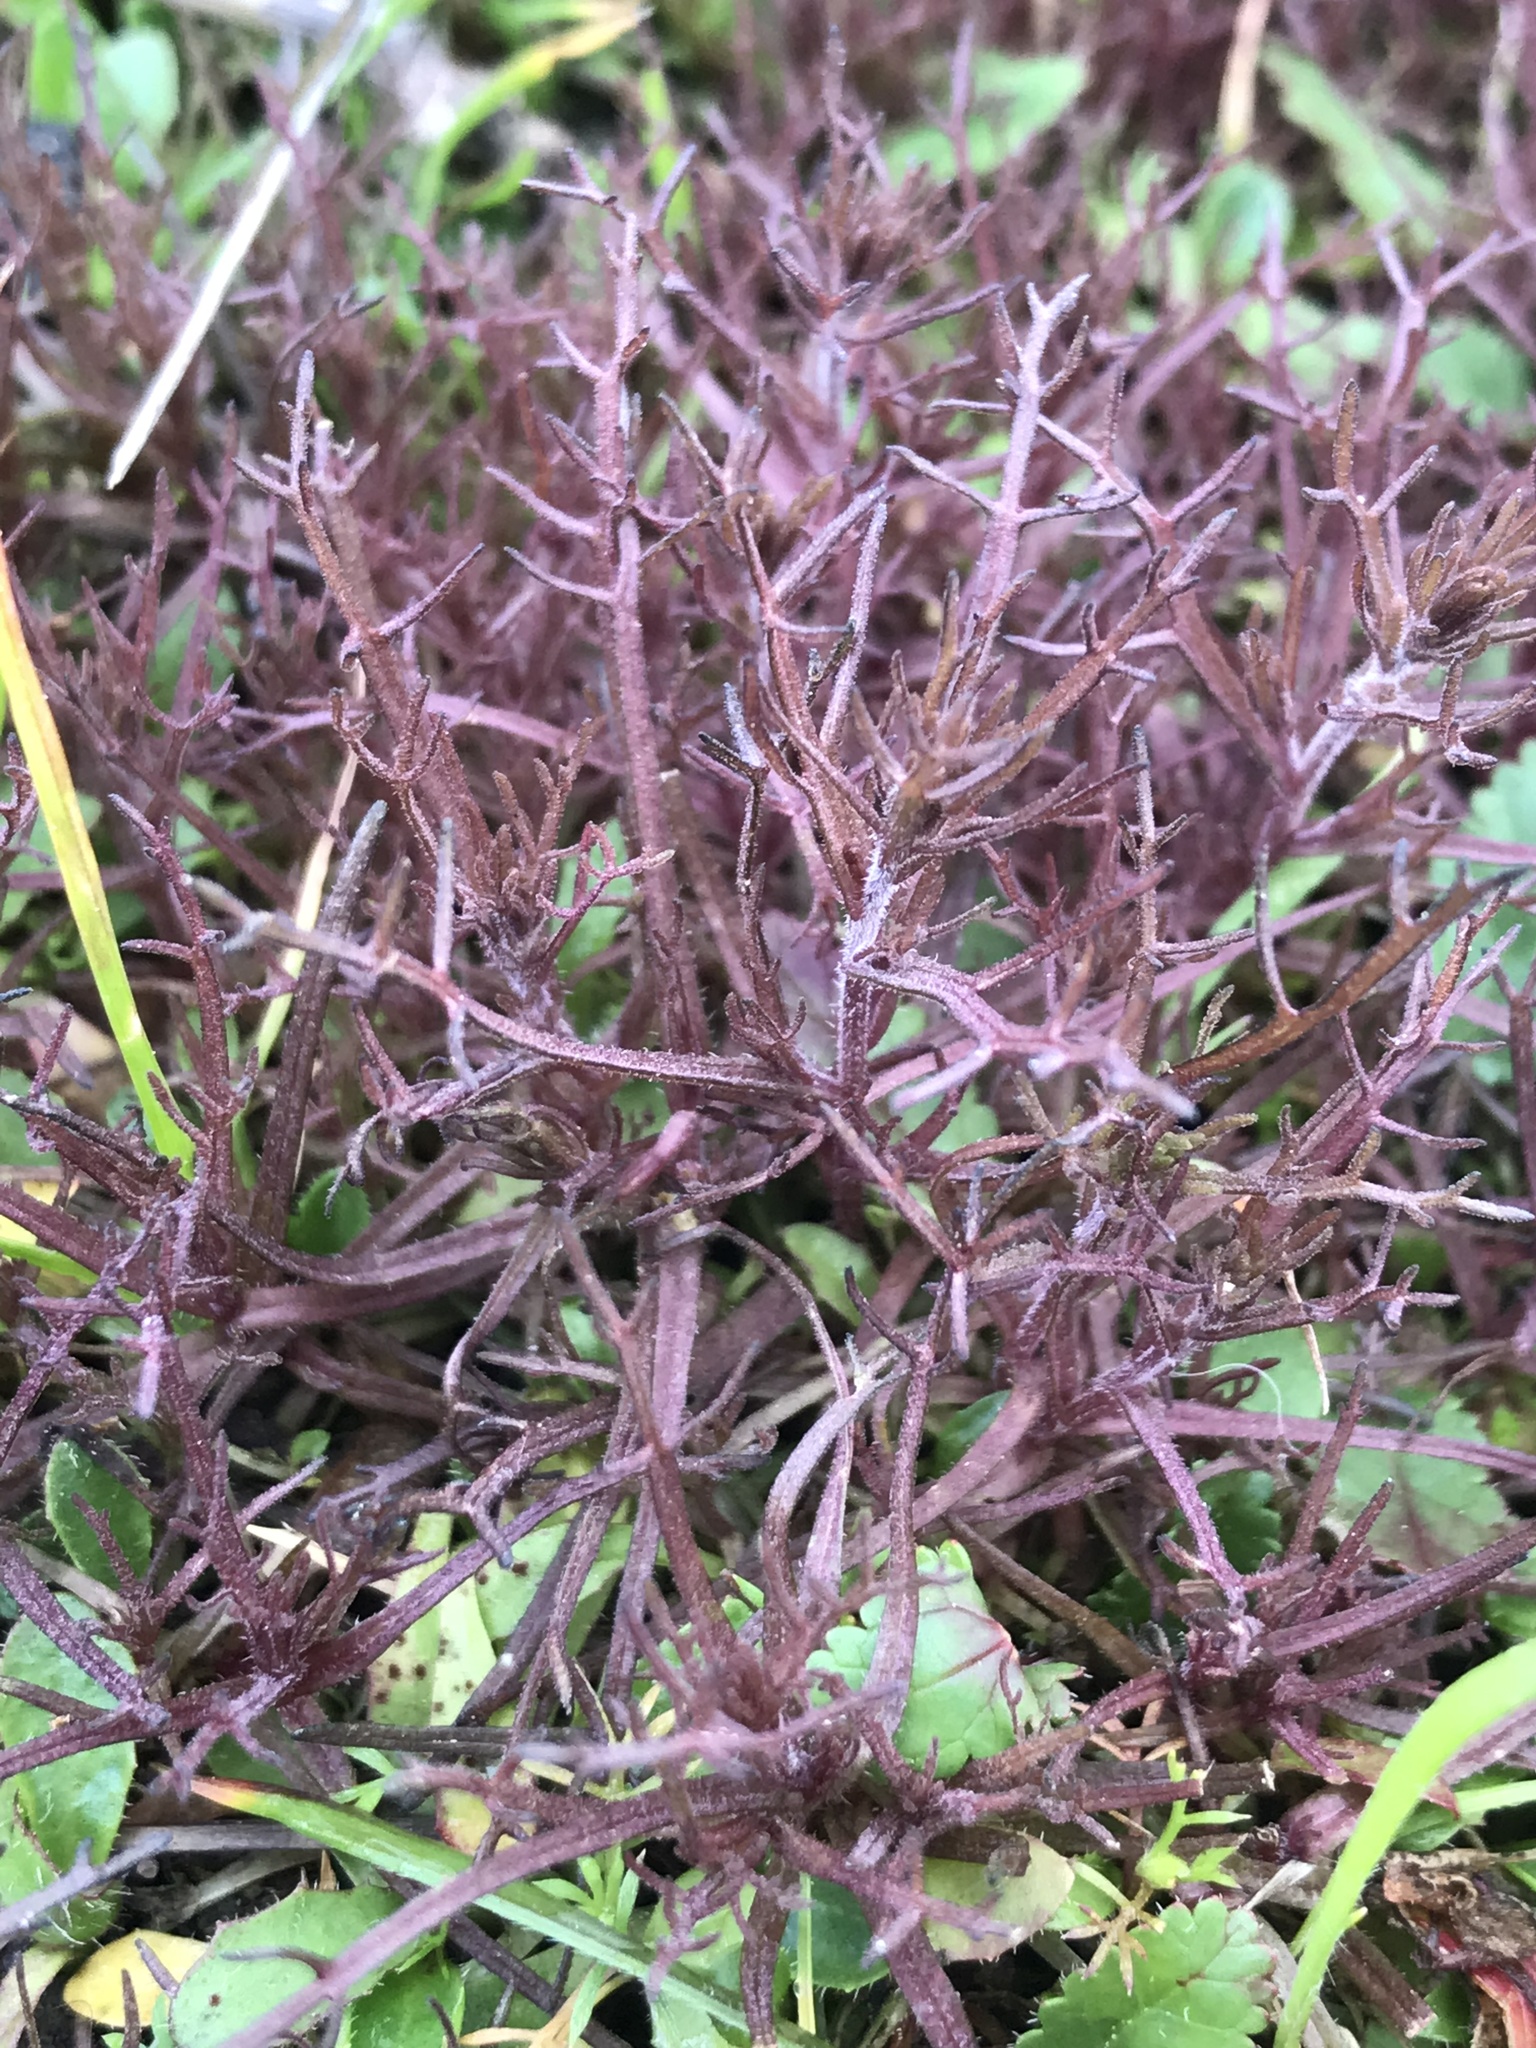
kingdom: Plantae
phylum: Tracheophyta
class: Magnoliopsida
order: Lamiales
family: Orobanchaceae
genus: Triphysaria
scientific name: Triphysaria pusilla
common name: Dwarf false owl-clover
